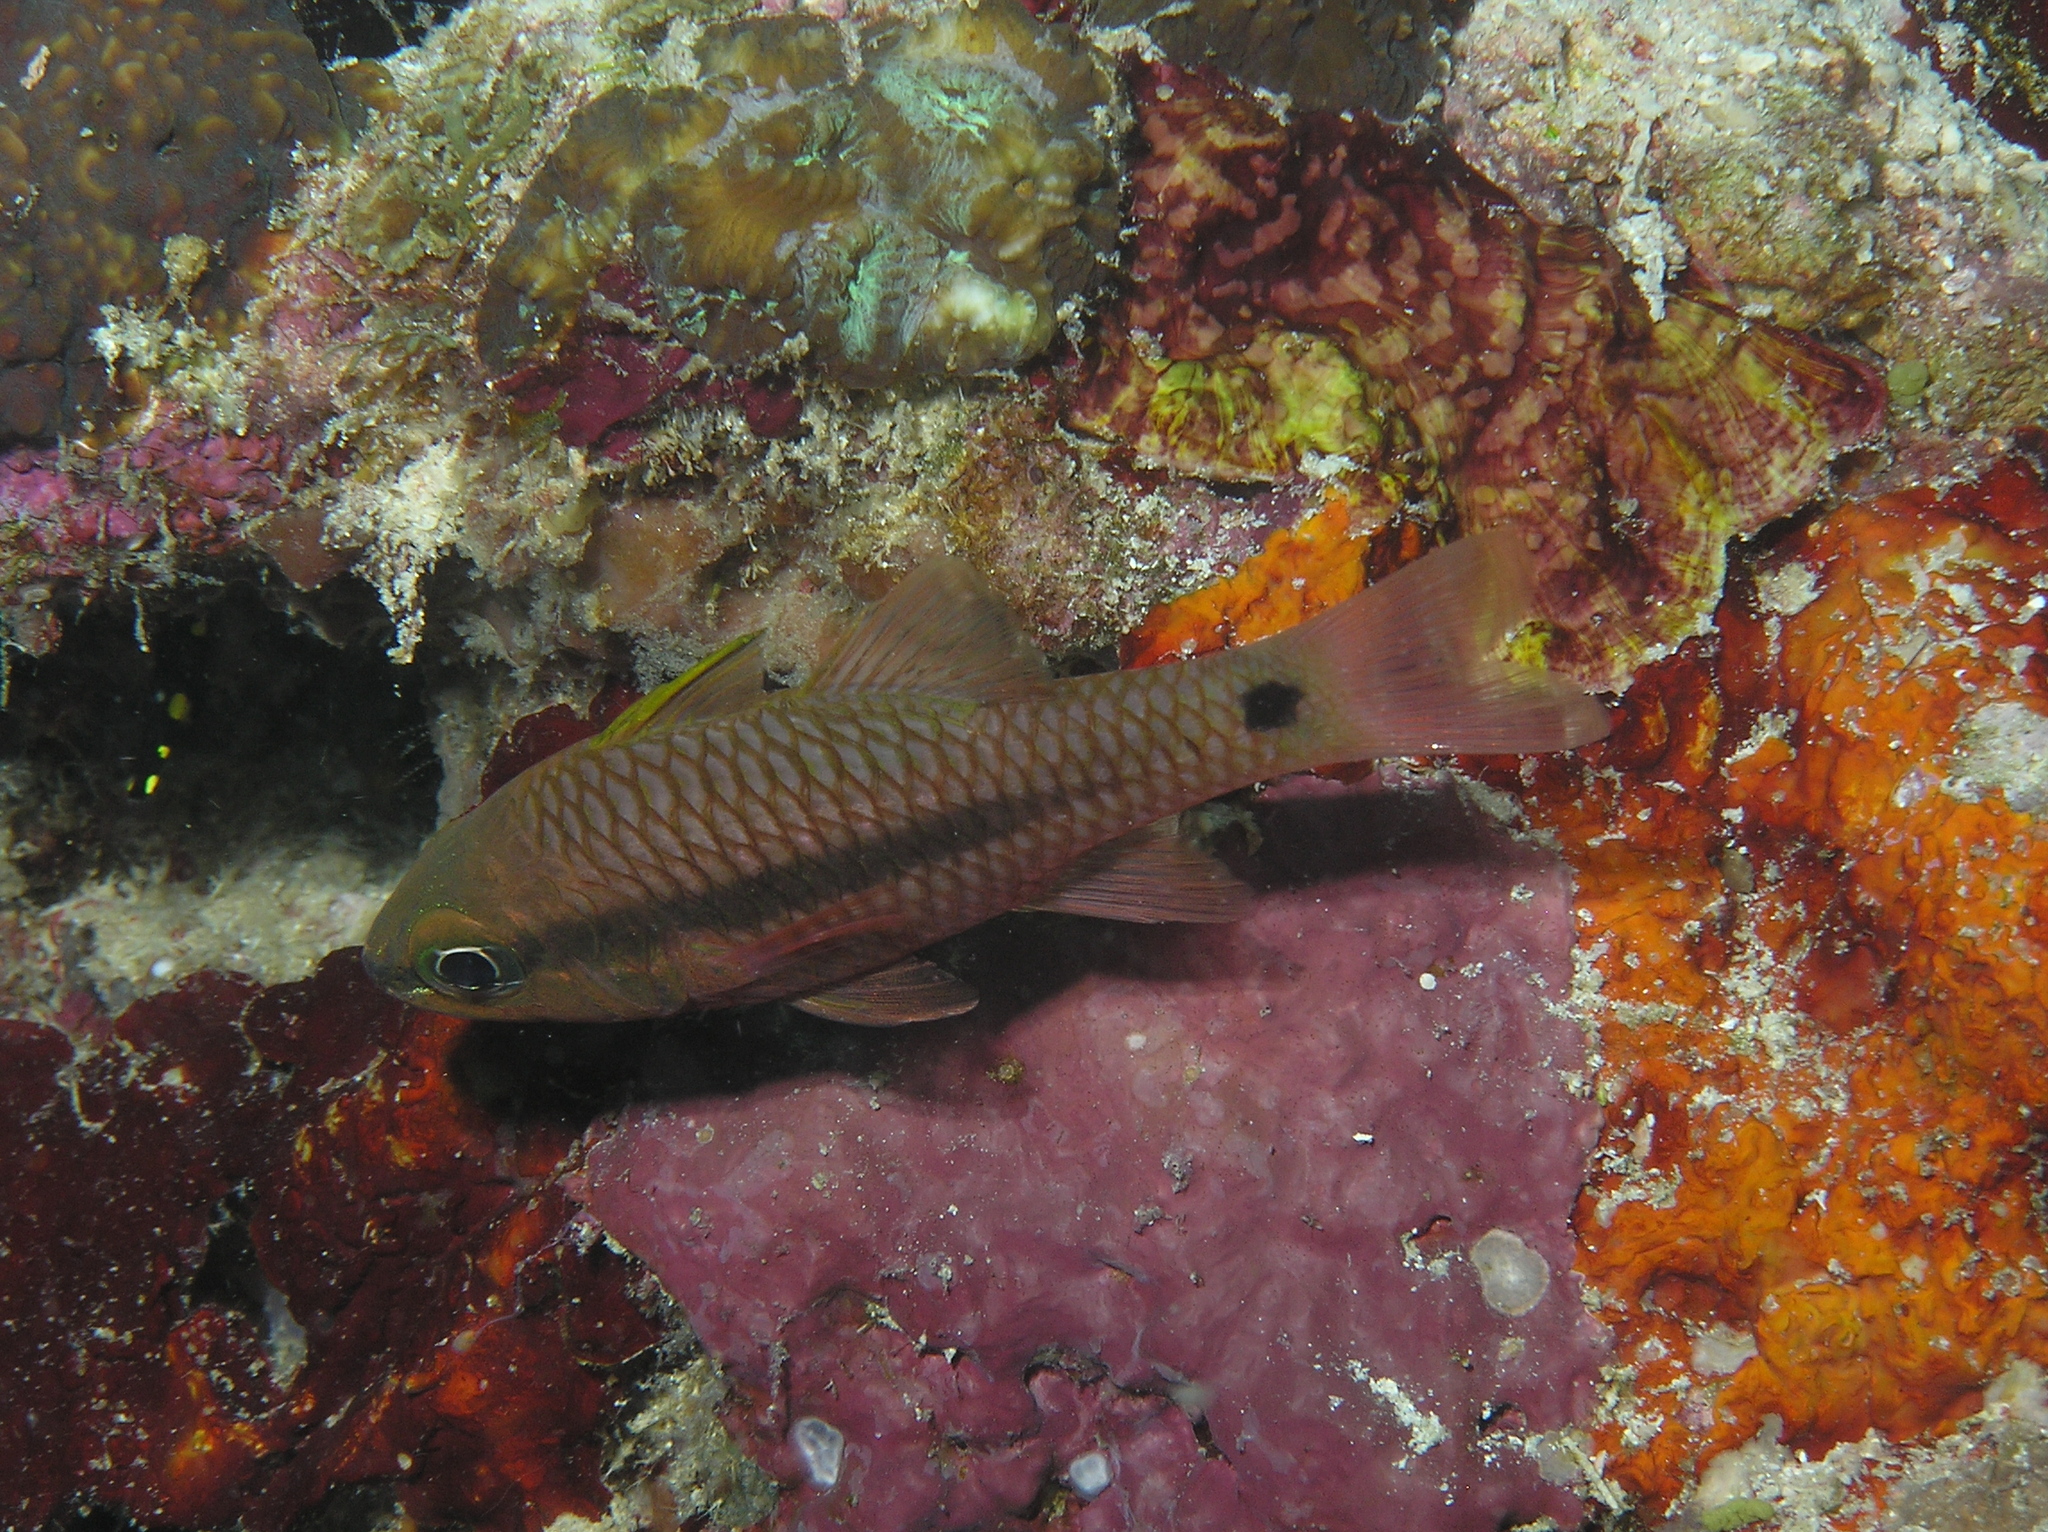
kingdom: Animalia
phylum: Chordata
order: Perciformes
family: Apogonidae
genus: Pristiapogon
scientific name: Pristiapogon kallopterus
